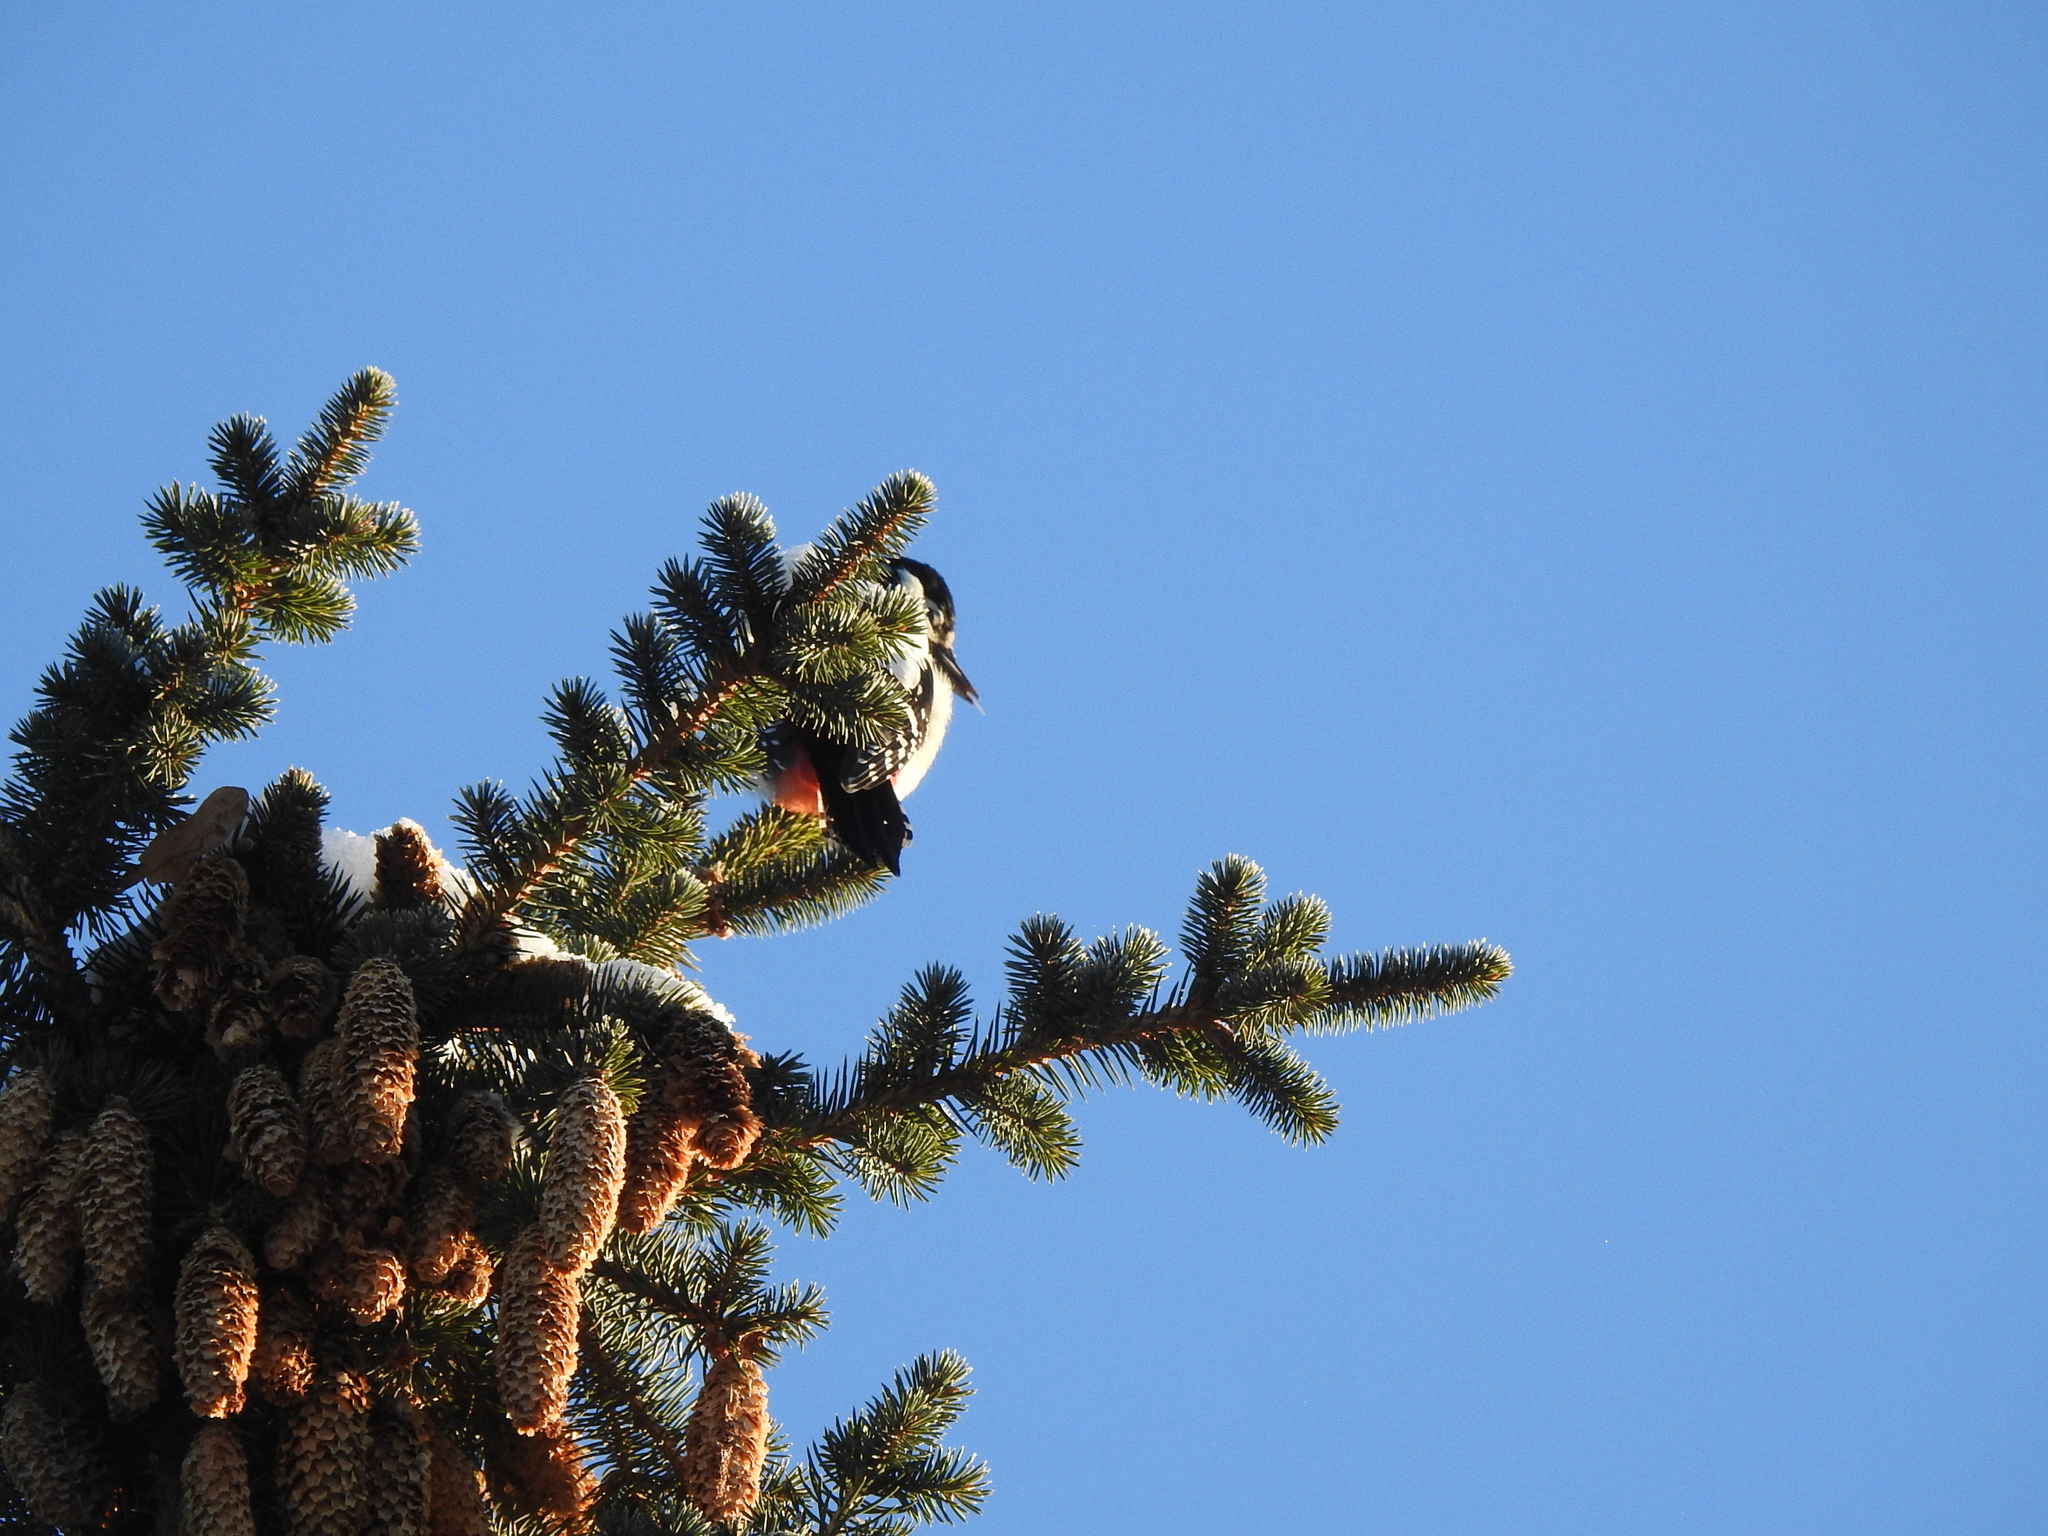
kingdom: Animalia
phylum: Chordata
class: Aves
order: Piciformes
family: Picidae
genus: Dendrocopos
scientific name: Dendrocopos major
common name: Great spotted woodpecker
